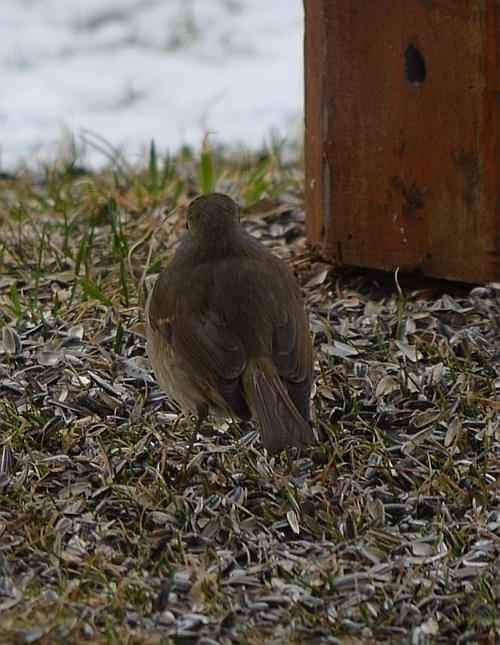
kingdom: Animalia
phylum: Chordata
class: Aves
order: Passeriformes
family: Muscicapidae
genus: Erithacus
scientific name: Erithacus rubecula
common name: European robin
